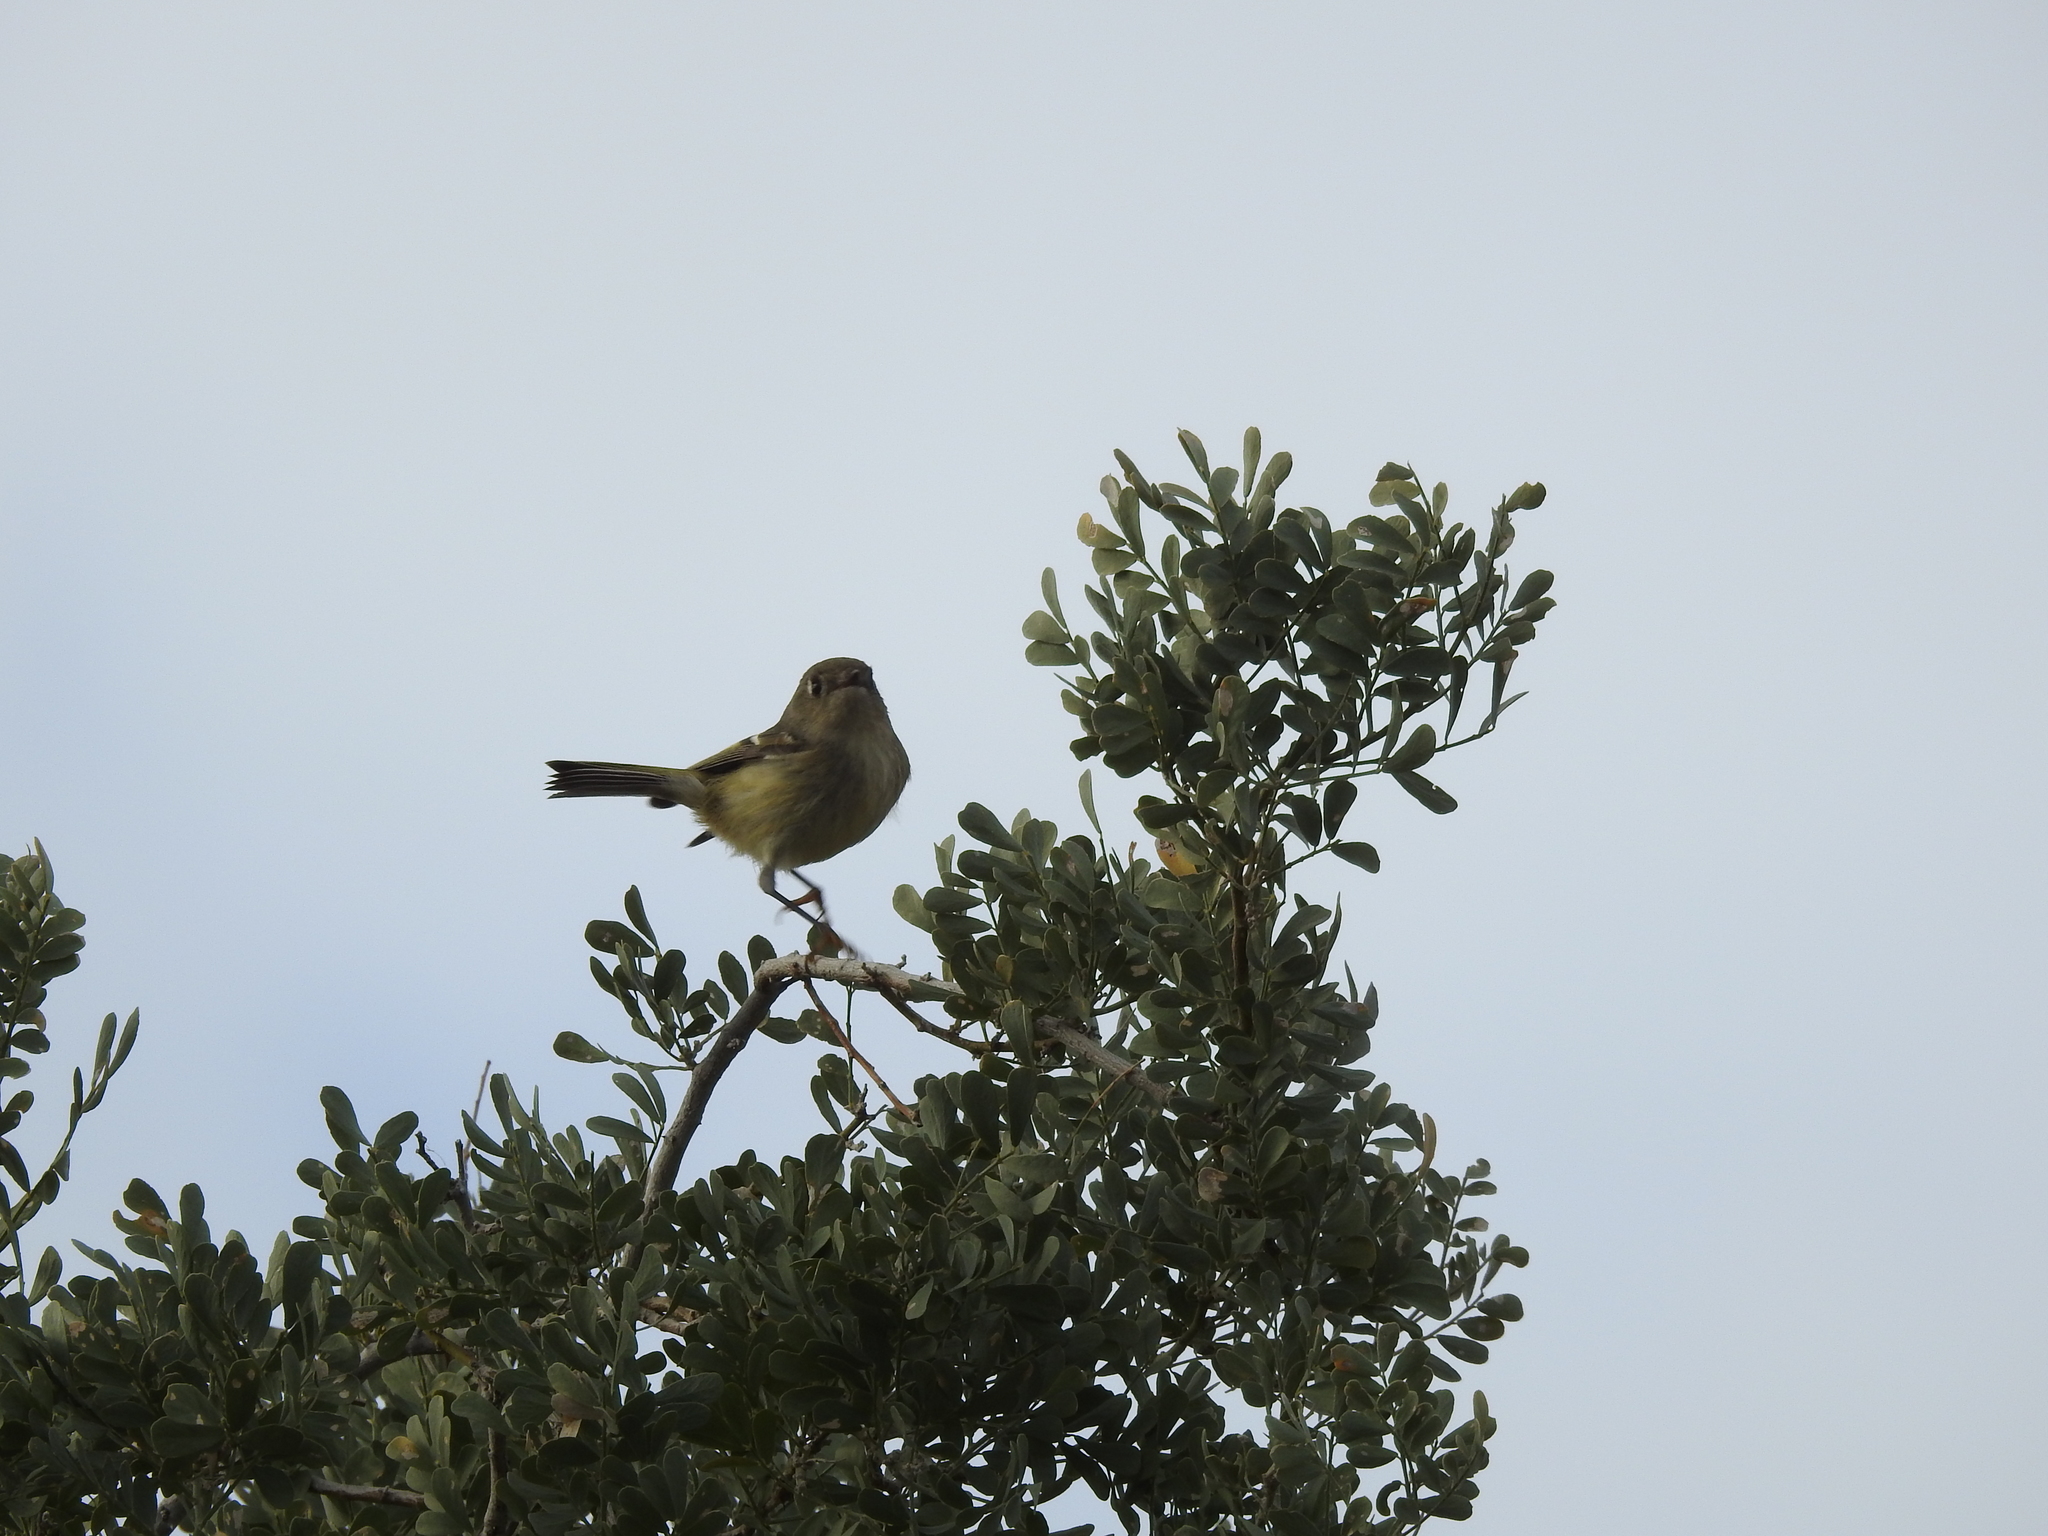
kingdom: Animalia
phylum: Chordata
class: Aves
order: Passeriformes
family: Regulidae
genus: Regulus
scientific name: Regulus calendula
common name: Ruby-crowned kinglet
